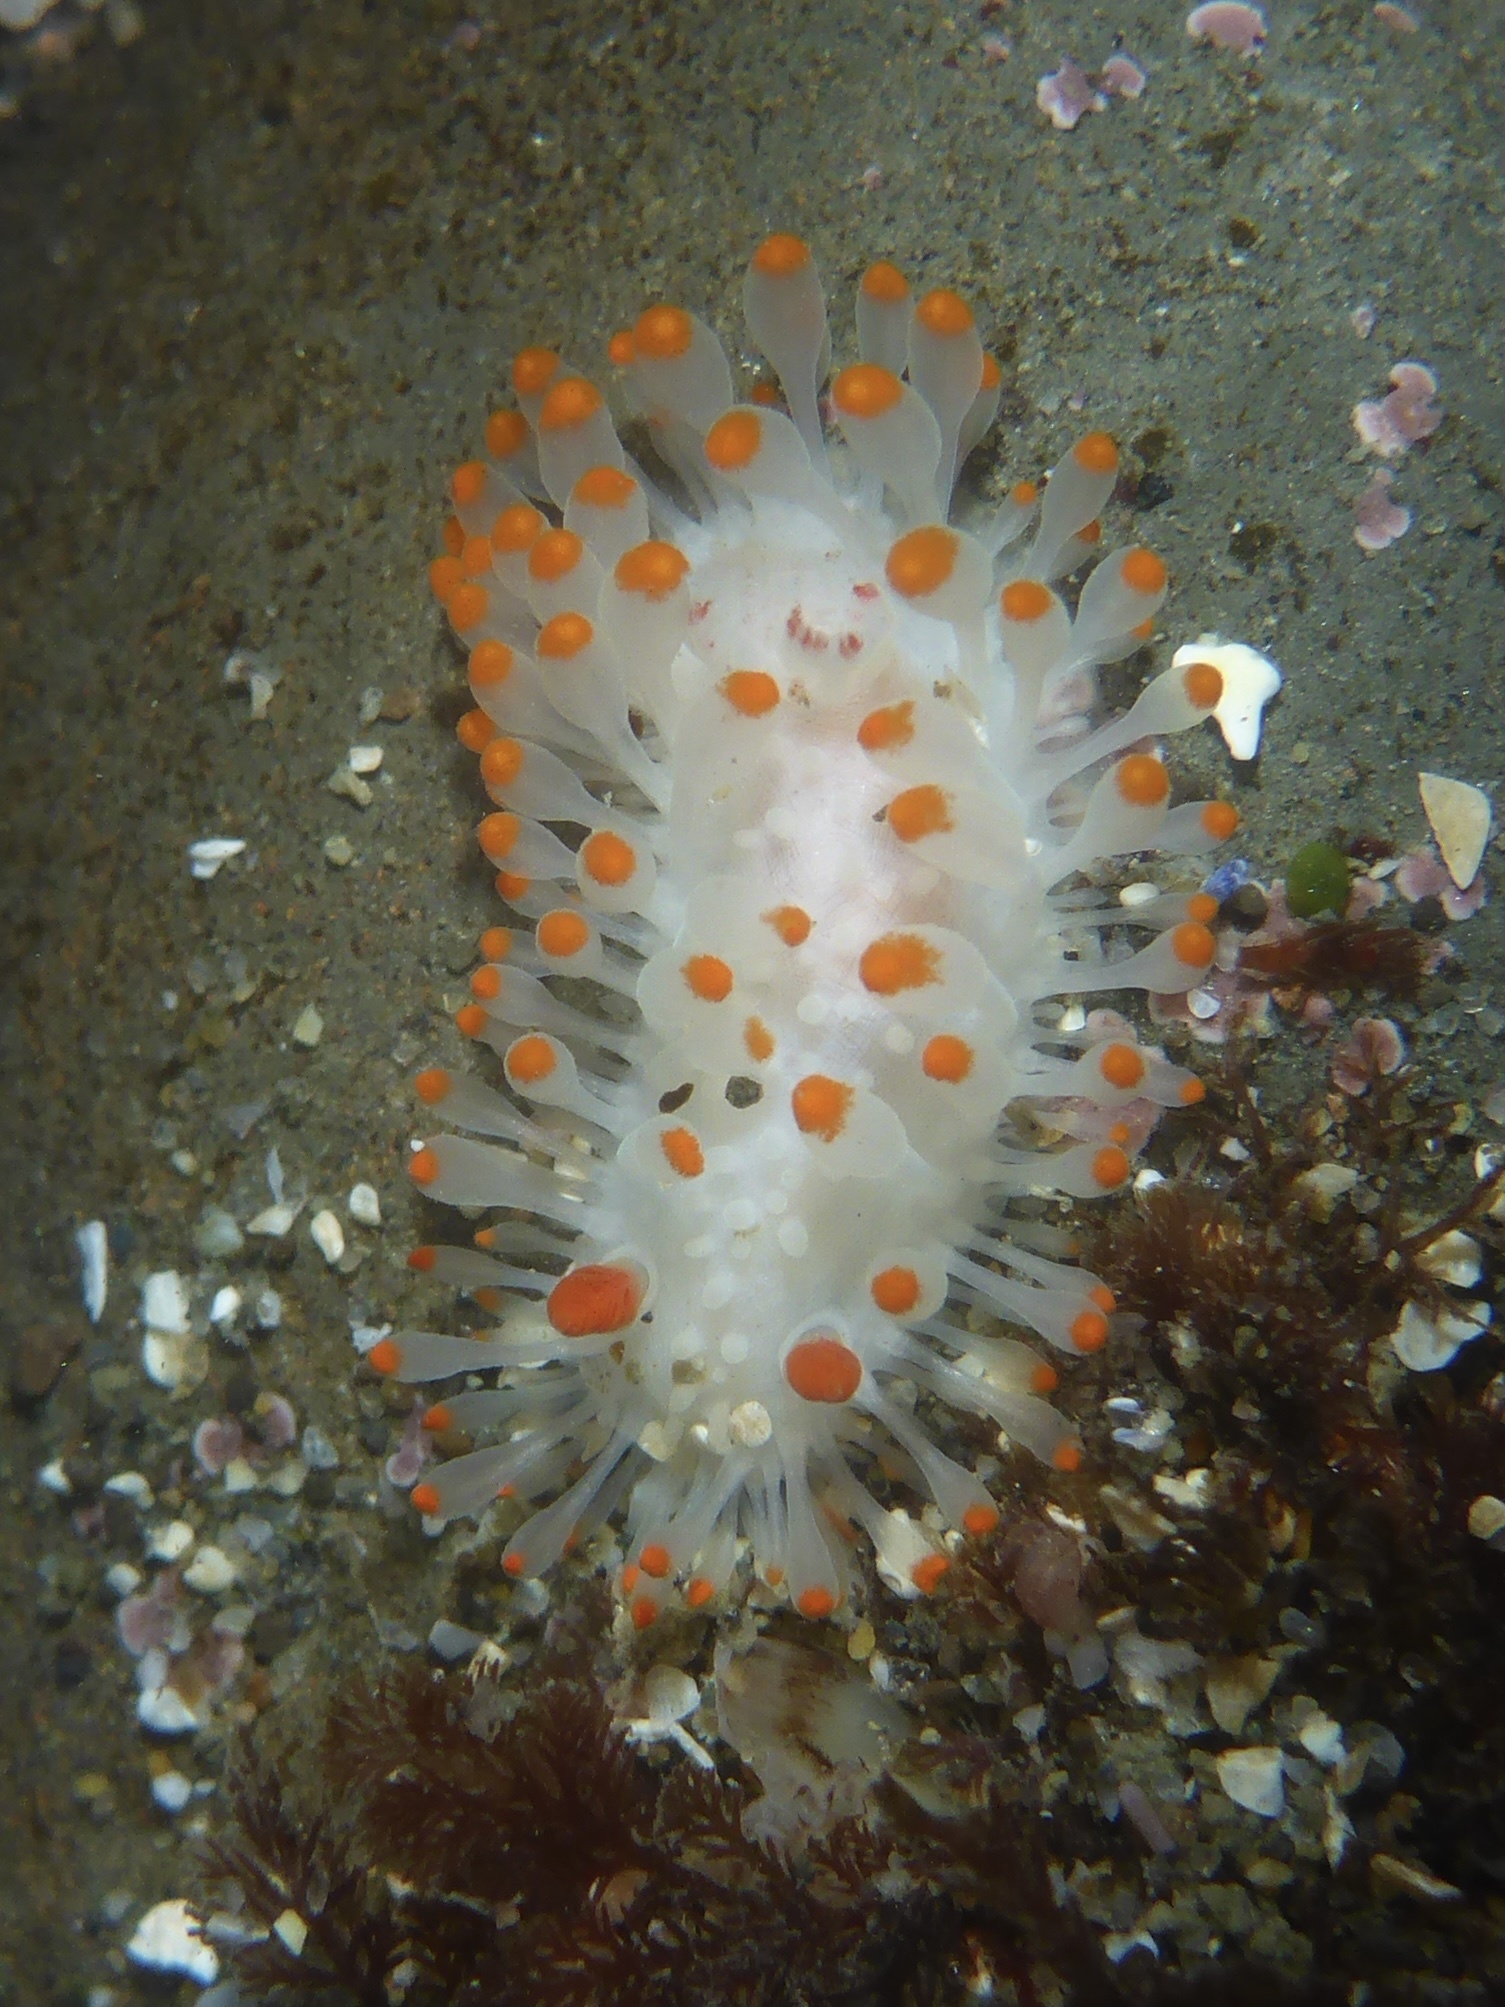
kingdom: Animalia
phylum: Mollusca
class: Gastropoda
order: Nudibranchia
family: Polyceridae
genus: Limacia
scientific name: Limacia cockerelli
